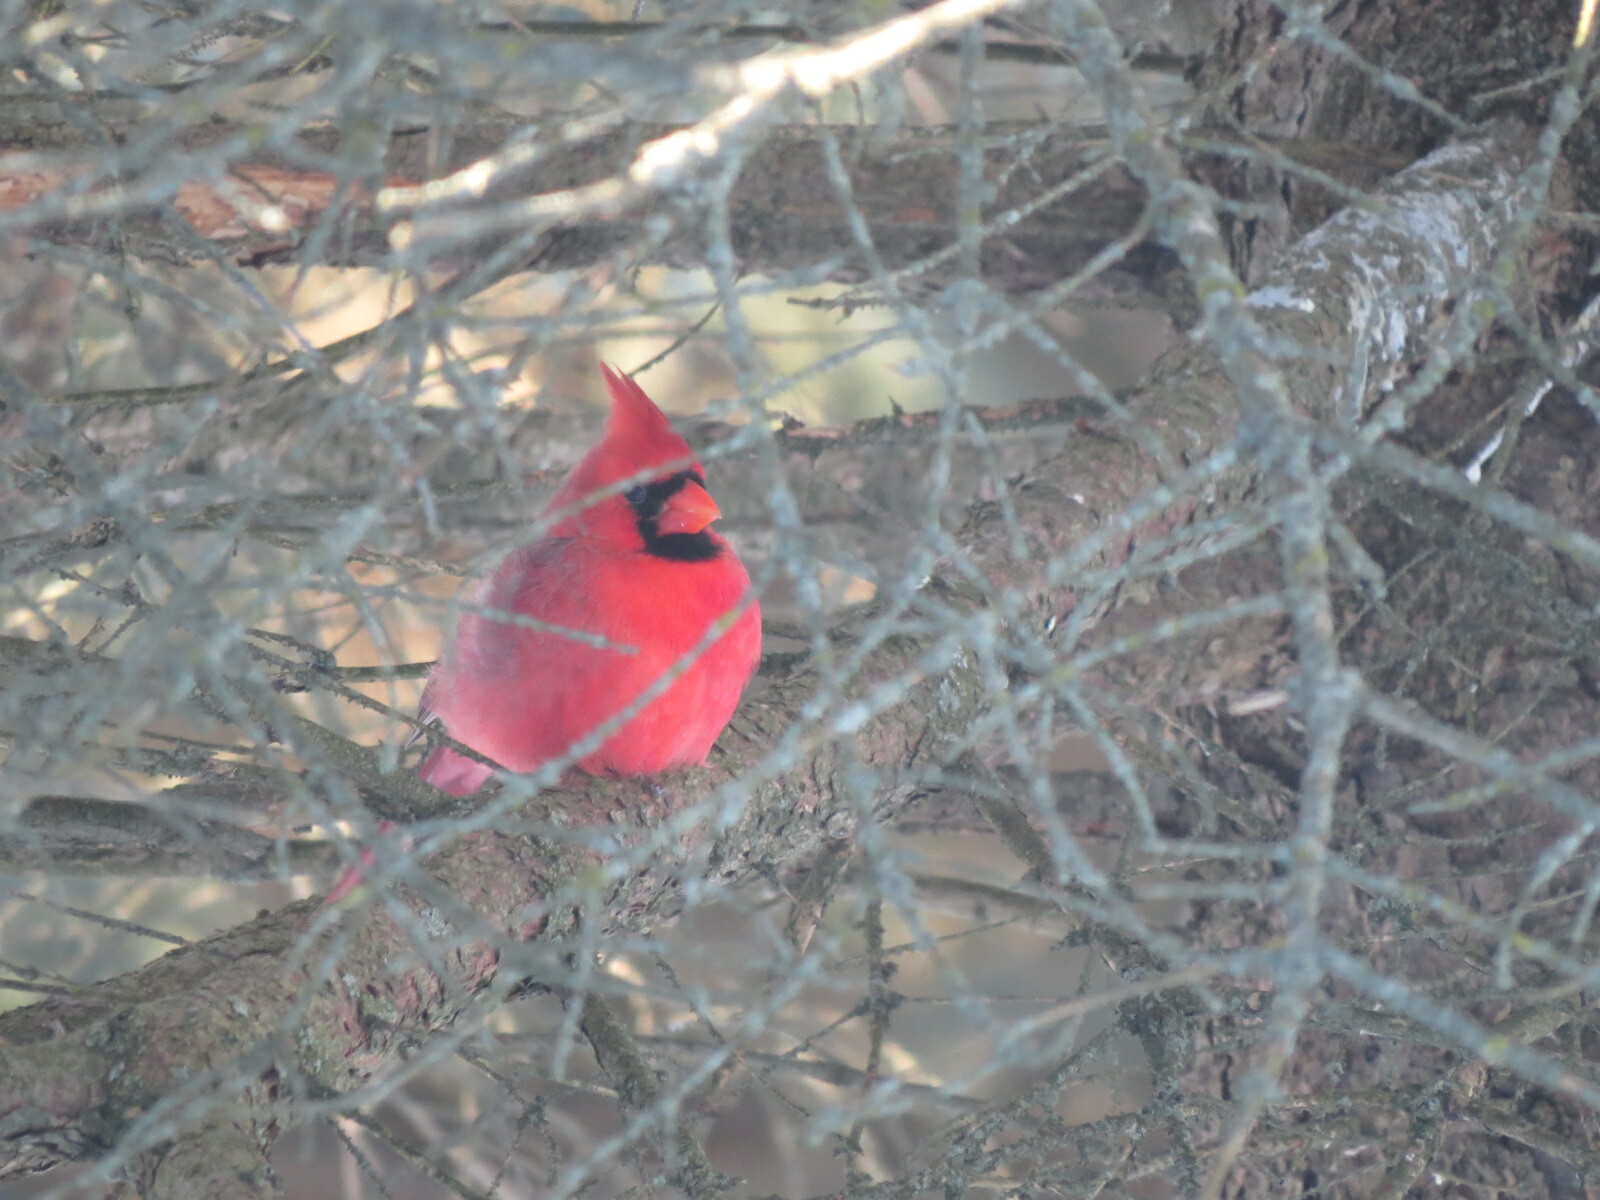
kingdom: Animalia
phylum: Chordata
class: Aves
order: Passeriformes
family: Cardinalidae
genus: Cardinalis
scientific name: Cardinalis cardinalis
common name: Northern cardinal
